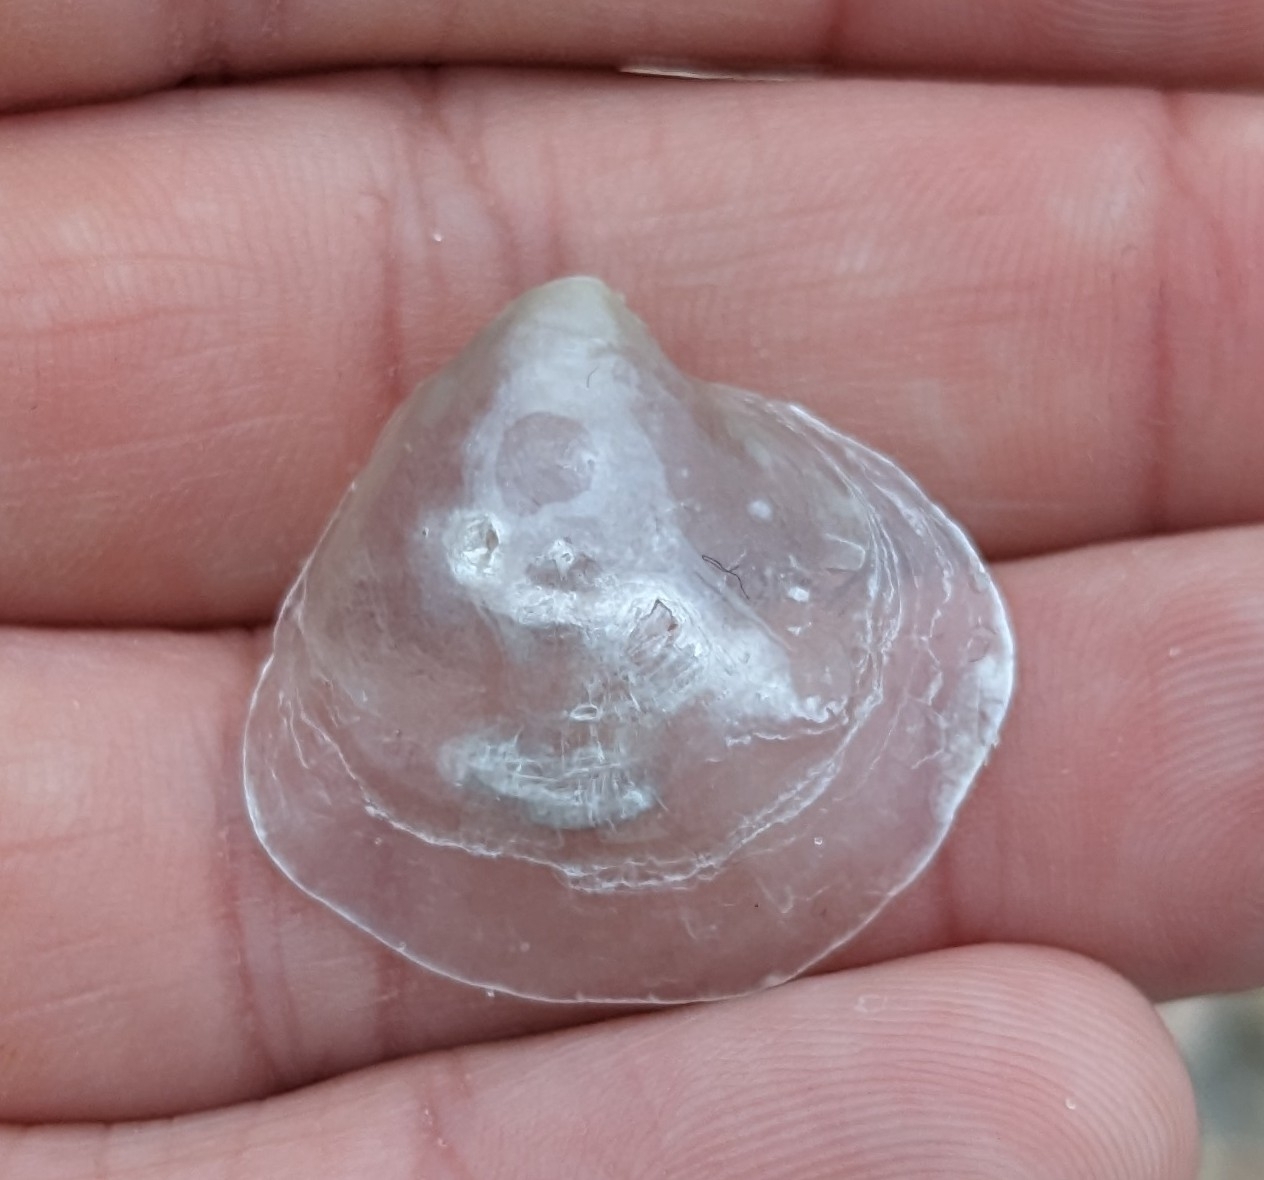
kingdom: Animalia
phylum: Mollusca
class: Bivalvia
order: Pectinida
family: Anomiidae
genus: Anomia
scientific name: Anomia simplex
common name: Common jingle shell
